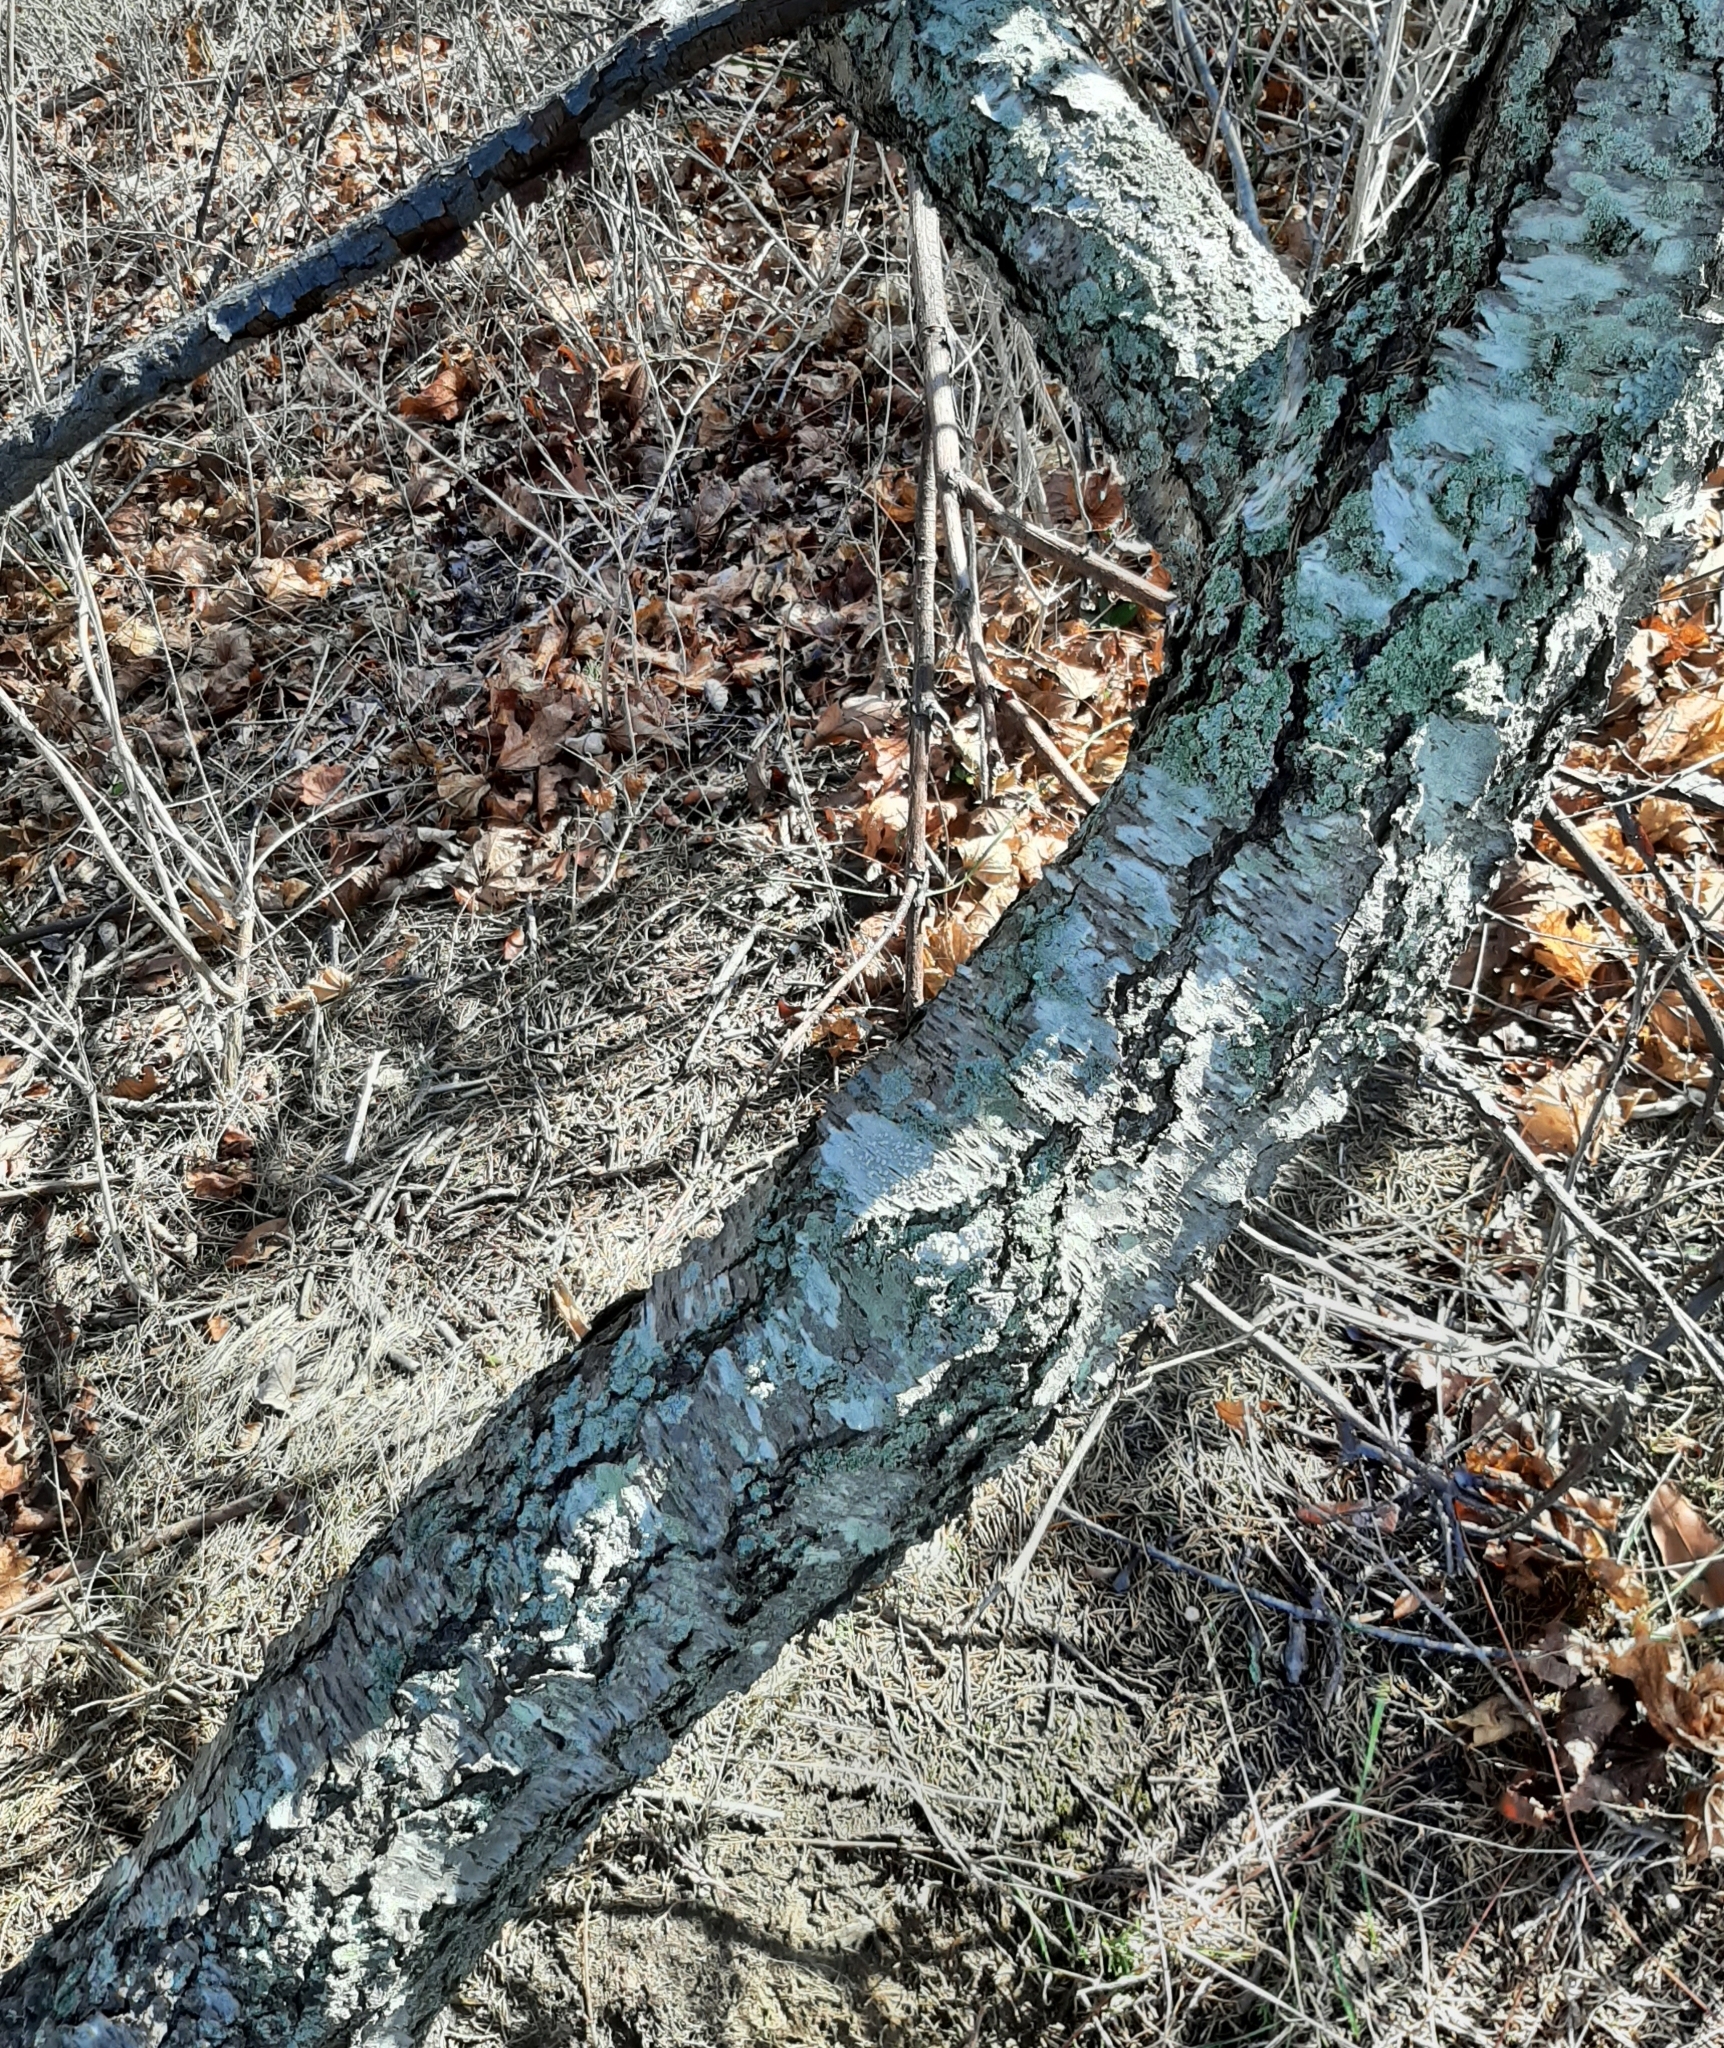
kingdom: Fungi
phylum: Ascomycota
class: Lecanoromycetes
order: Lecanorales
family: Lecanoraceae
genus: Lecanora
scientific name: Lecanora protervula
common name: Lesser dust my discs
